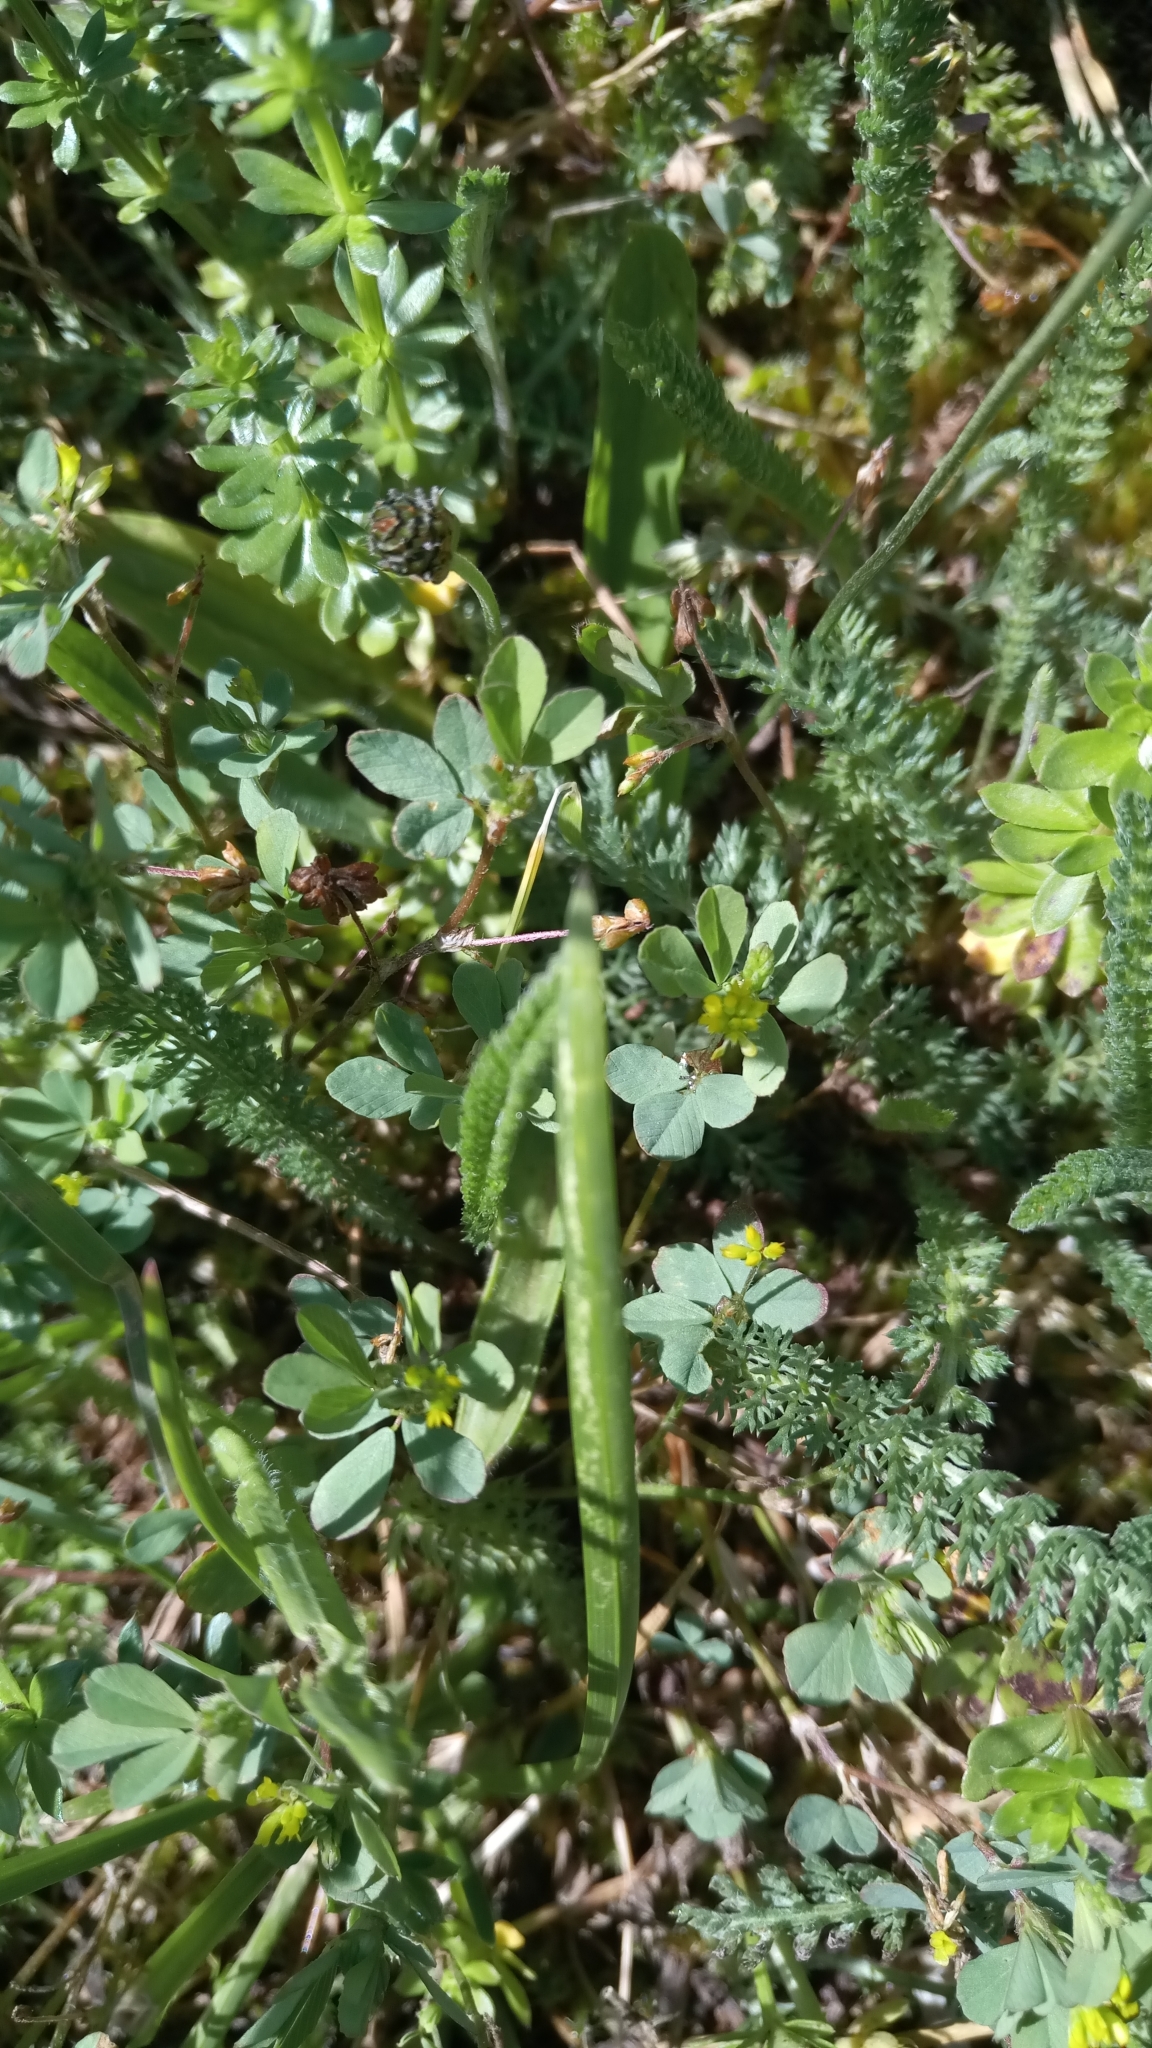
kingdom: Plantae
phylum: Tracheophyta
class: Magnoliopsida
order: Fabales
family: Fabaceae
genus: Trifolium
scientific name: Trifolium dubium
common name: Suckling clover
